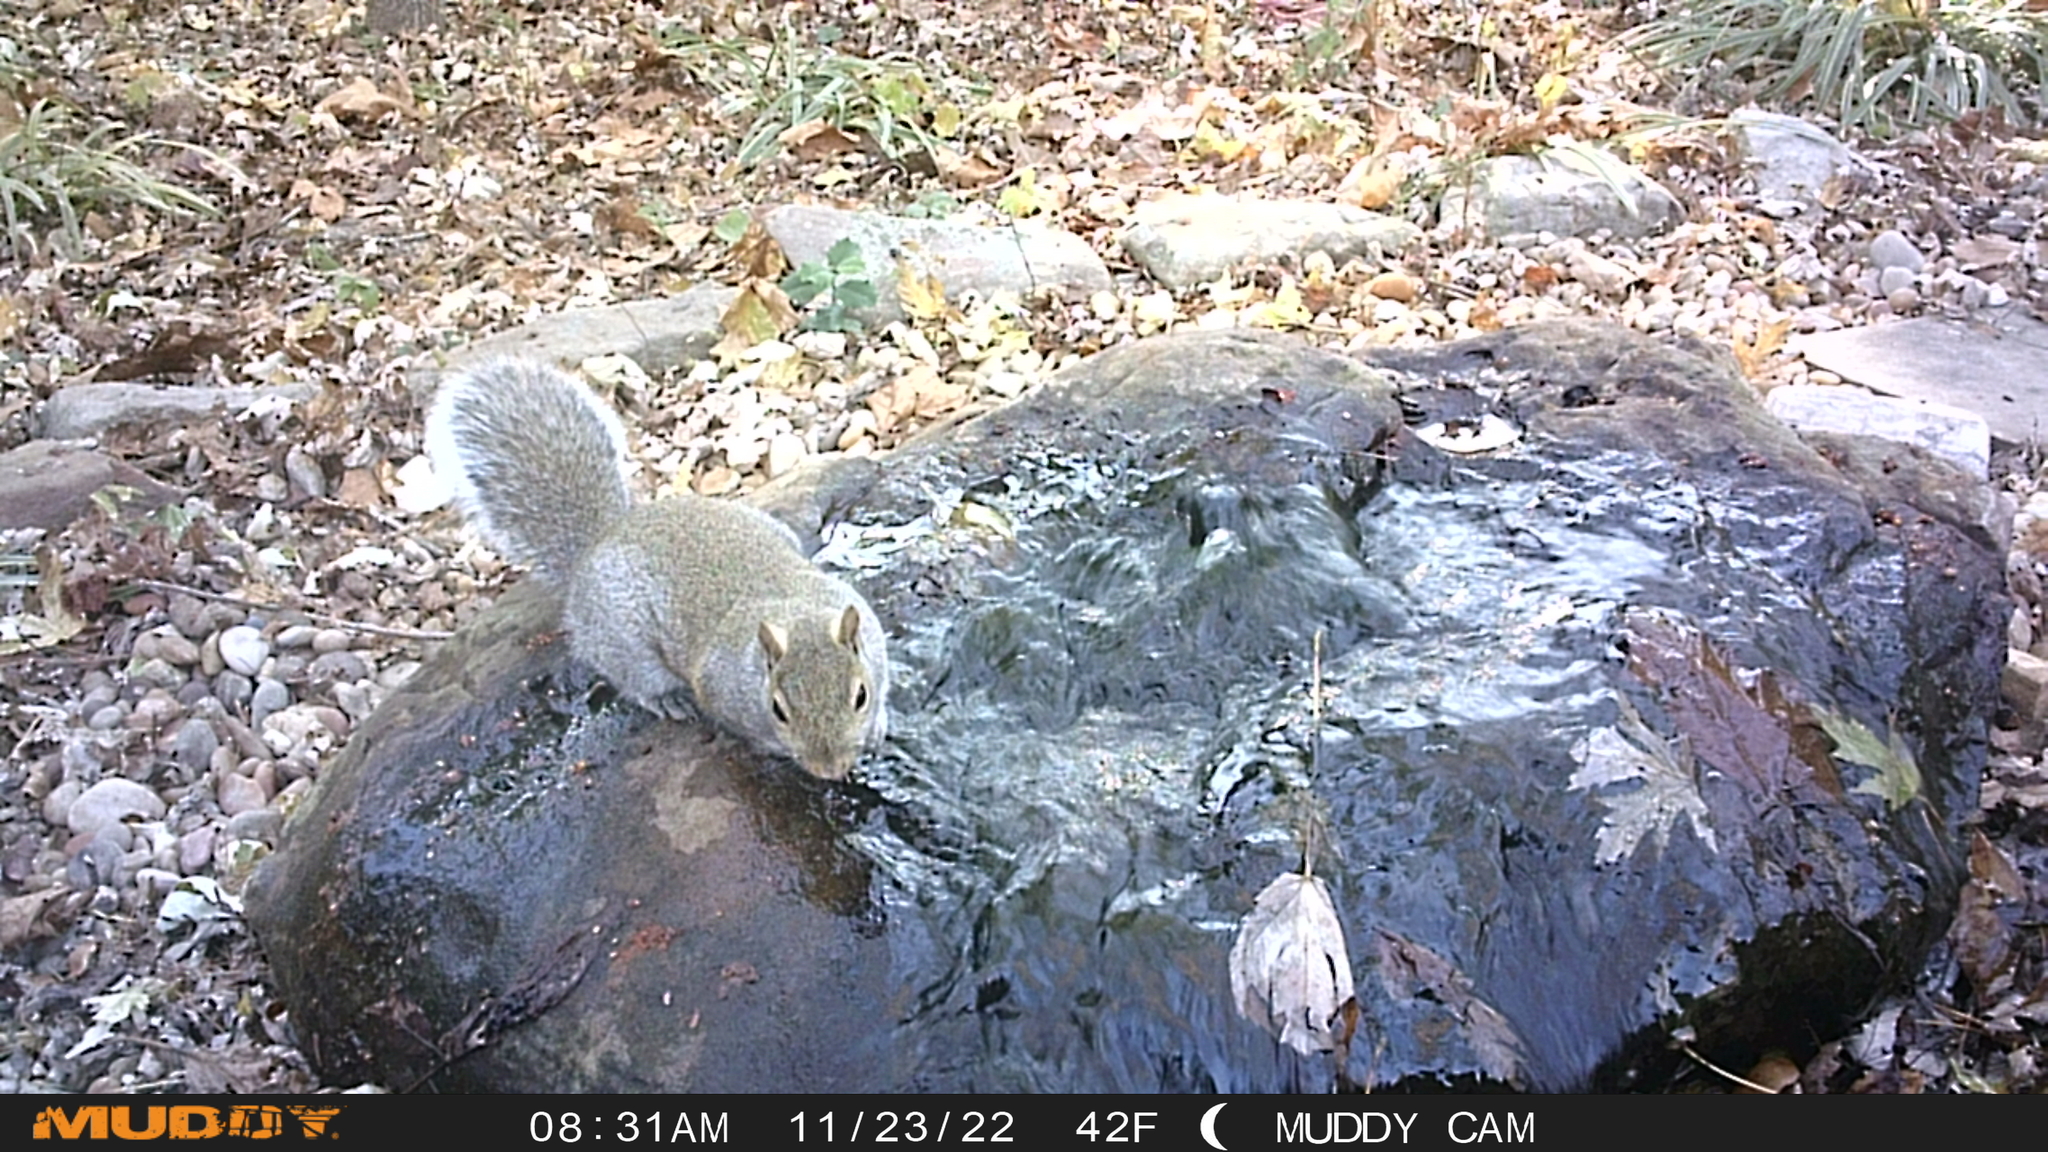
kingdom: Animalia
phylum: Chordata
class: Mammalia
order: Rodentia
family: Sciuridae
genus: Sciurus
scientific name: Sciurus carolinensis
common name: Eastern gray squirrel
